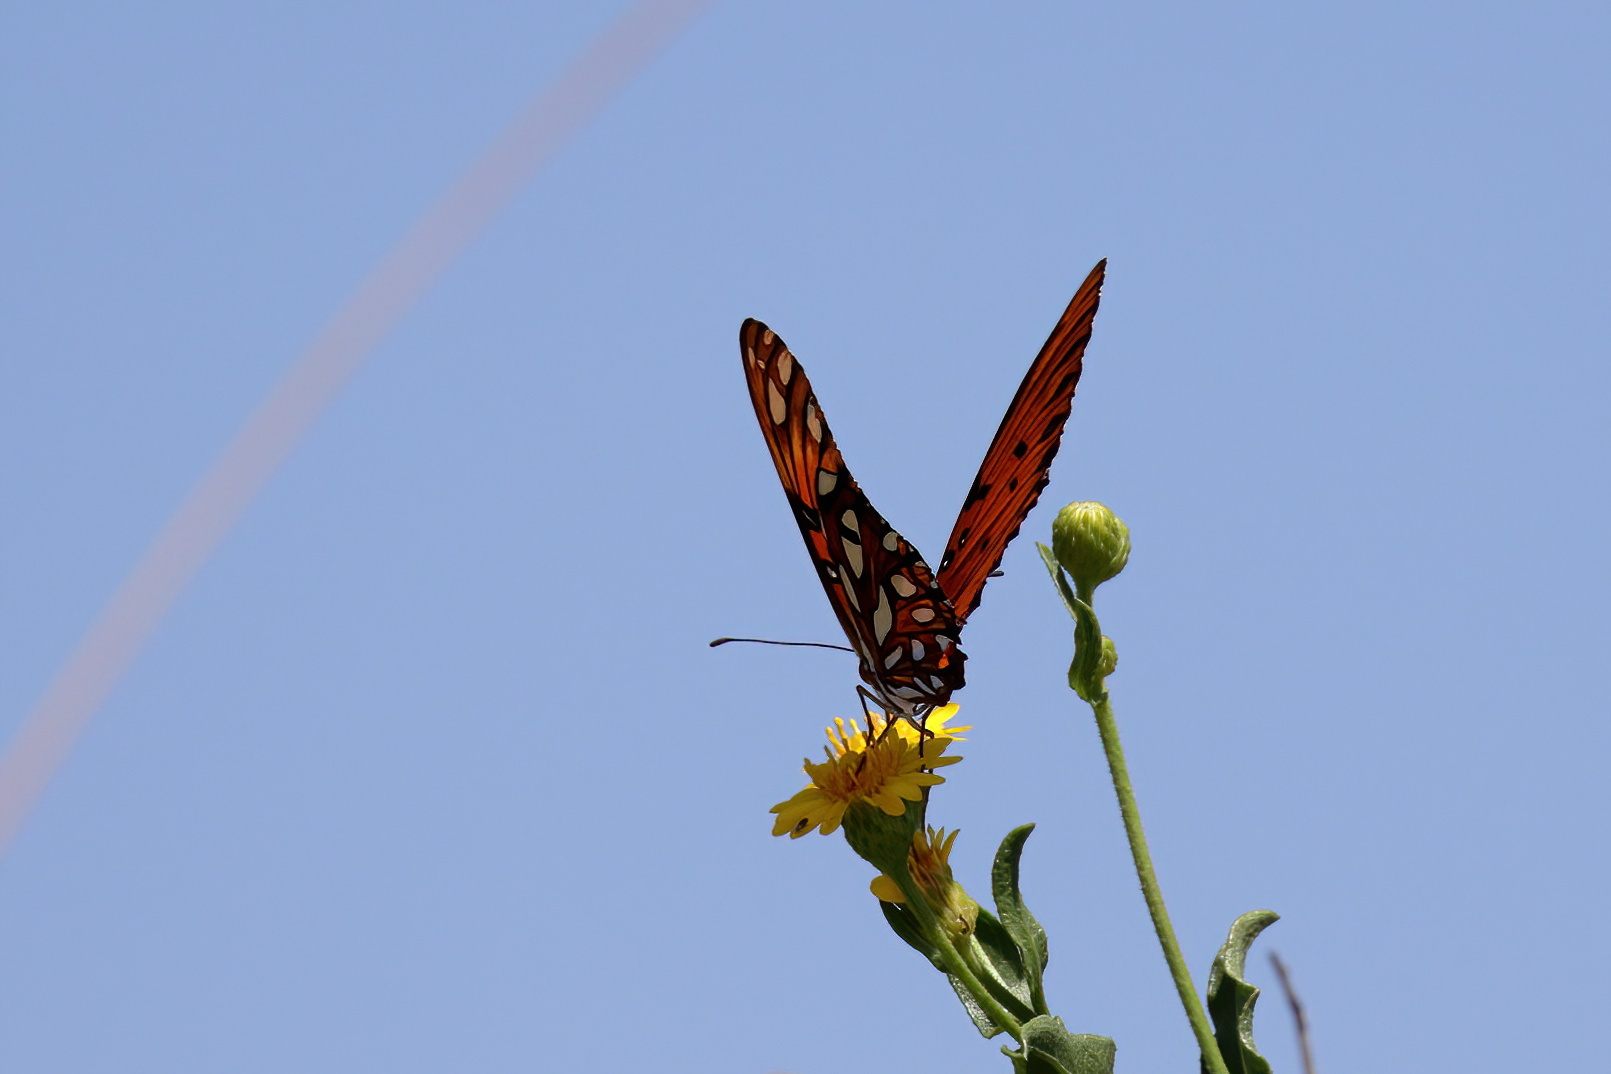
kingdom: Animalia
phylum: Arthropoda
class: Insecta
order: Lepidoptera
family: Nymphalidae
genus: Dione
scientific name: Dione vanillae
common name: Gulf fritillary
